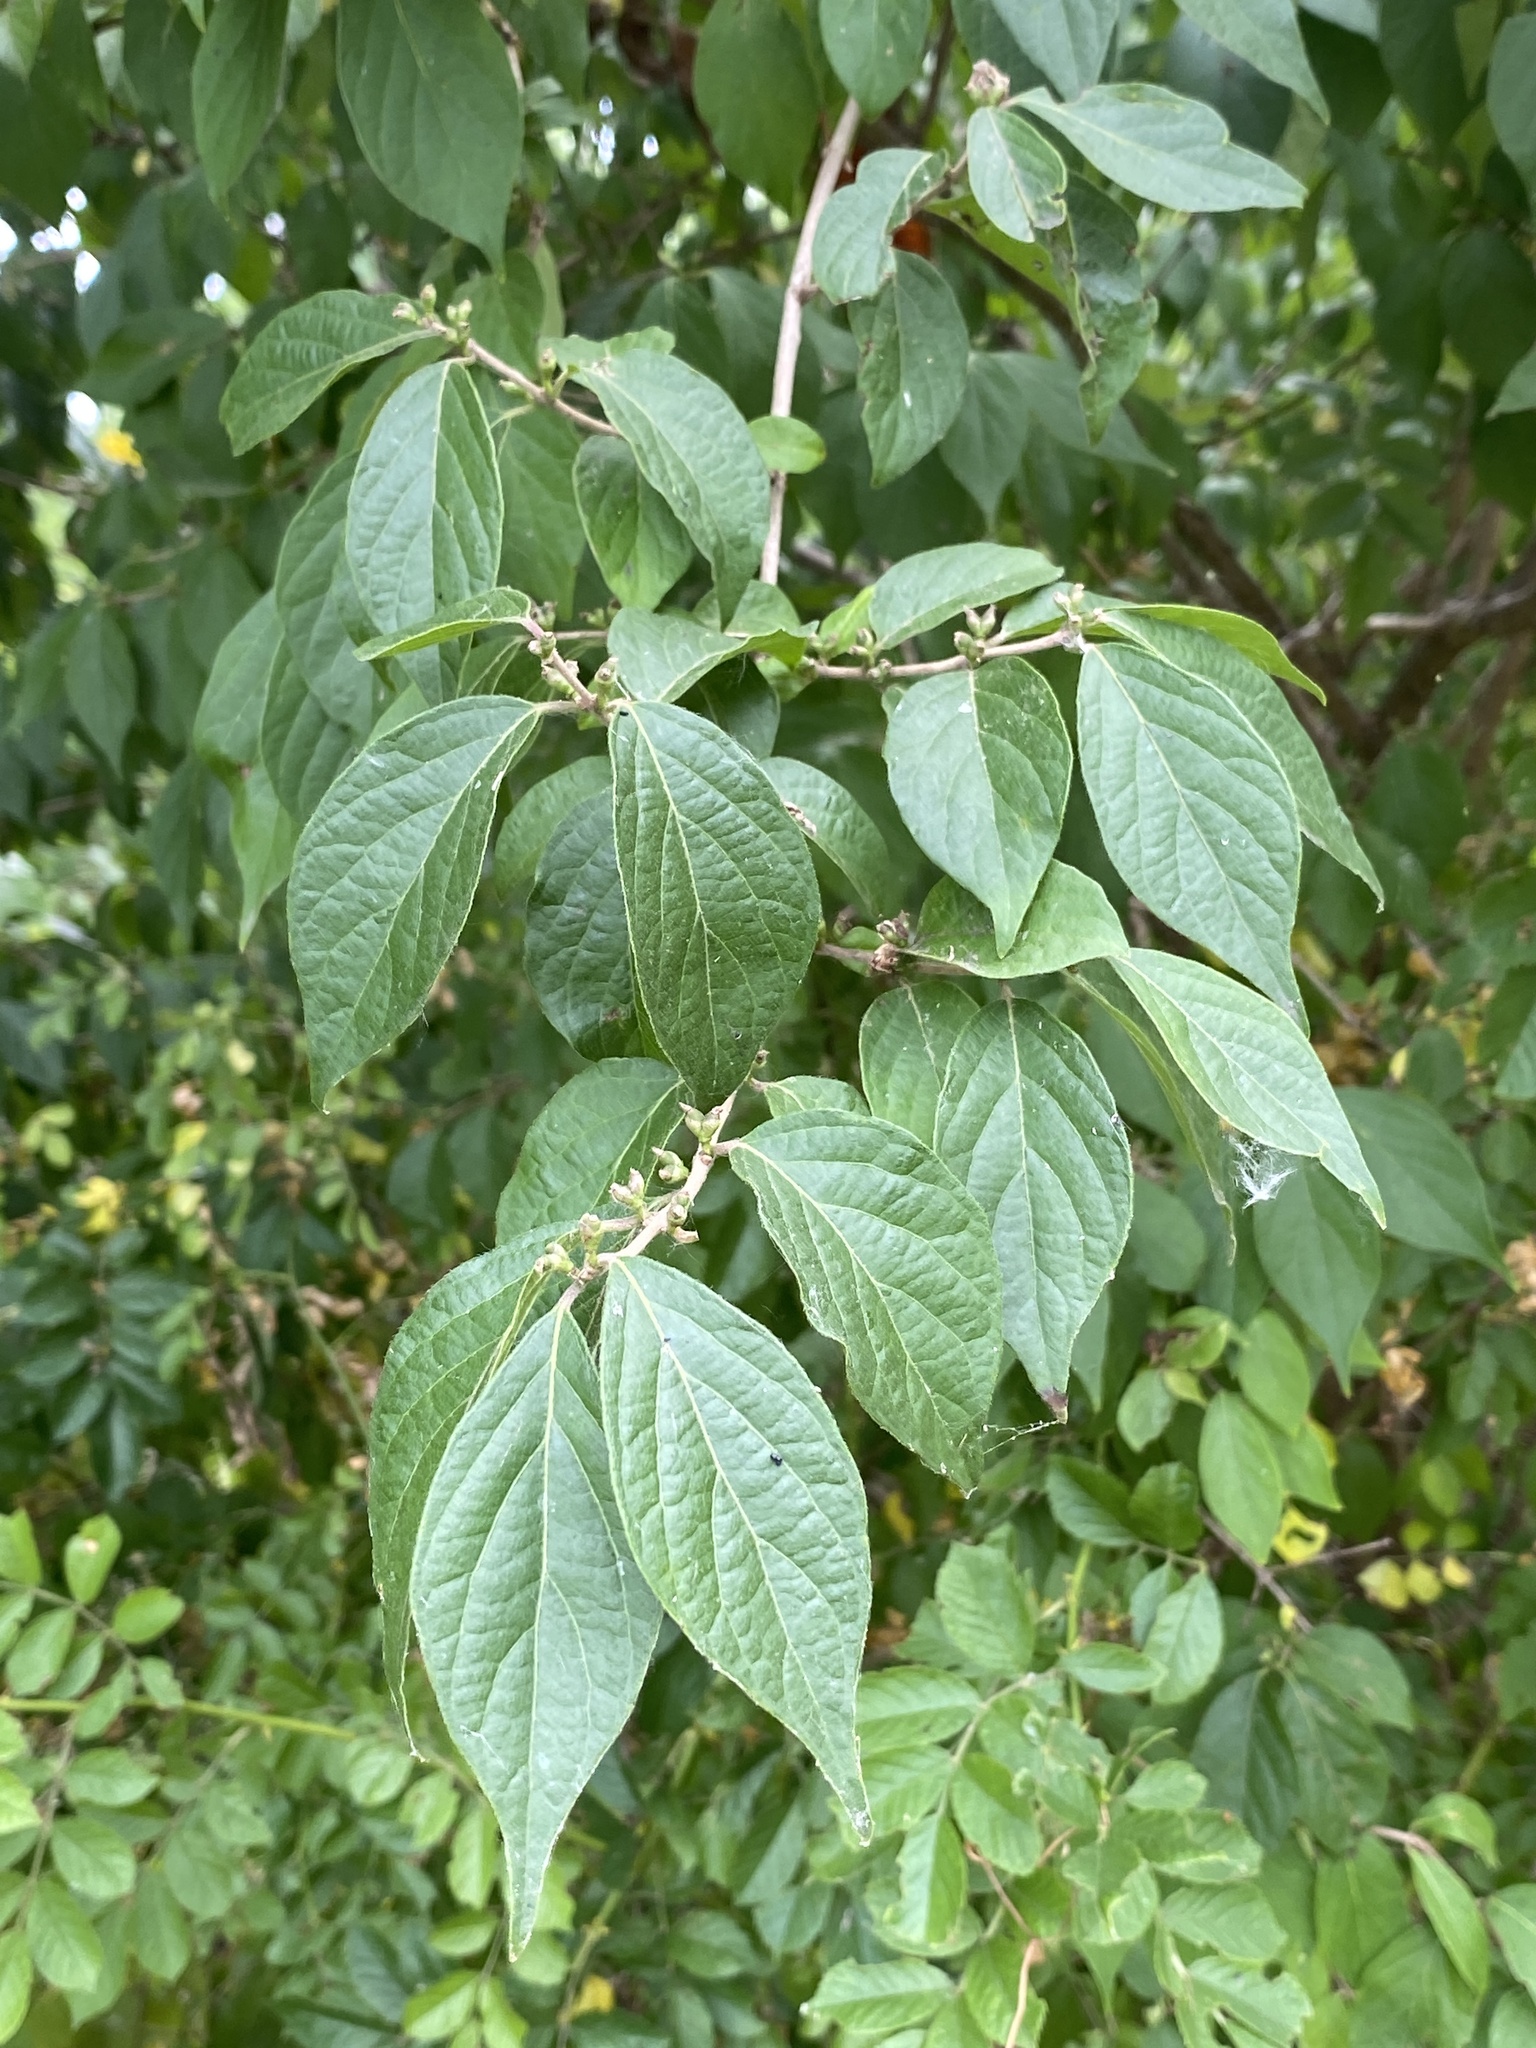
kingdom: Plantae
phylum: Tracheophyta
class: Magnoliopsida
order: Dipsacales
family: Caprifoliaceae
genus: Lonicera
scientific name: Lonicera maackii
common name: Amur honeysuckle
